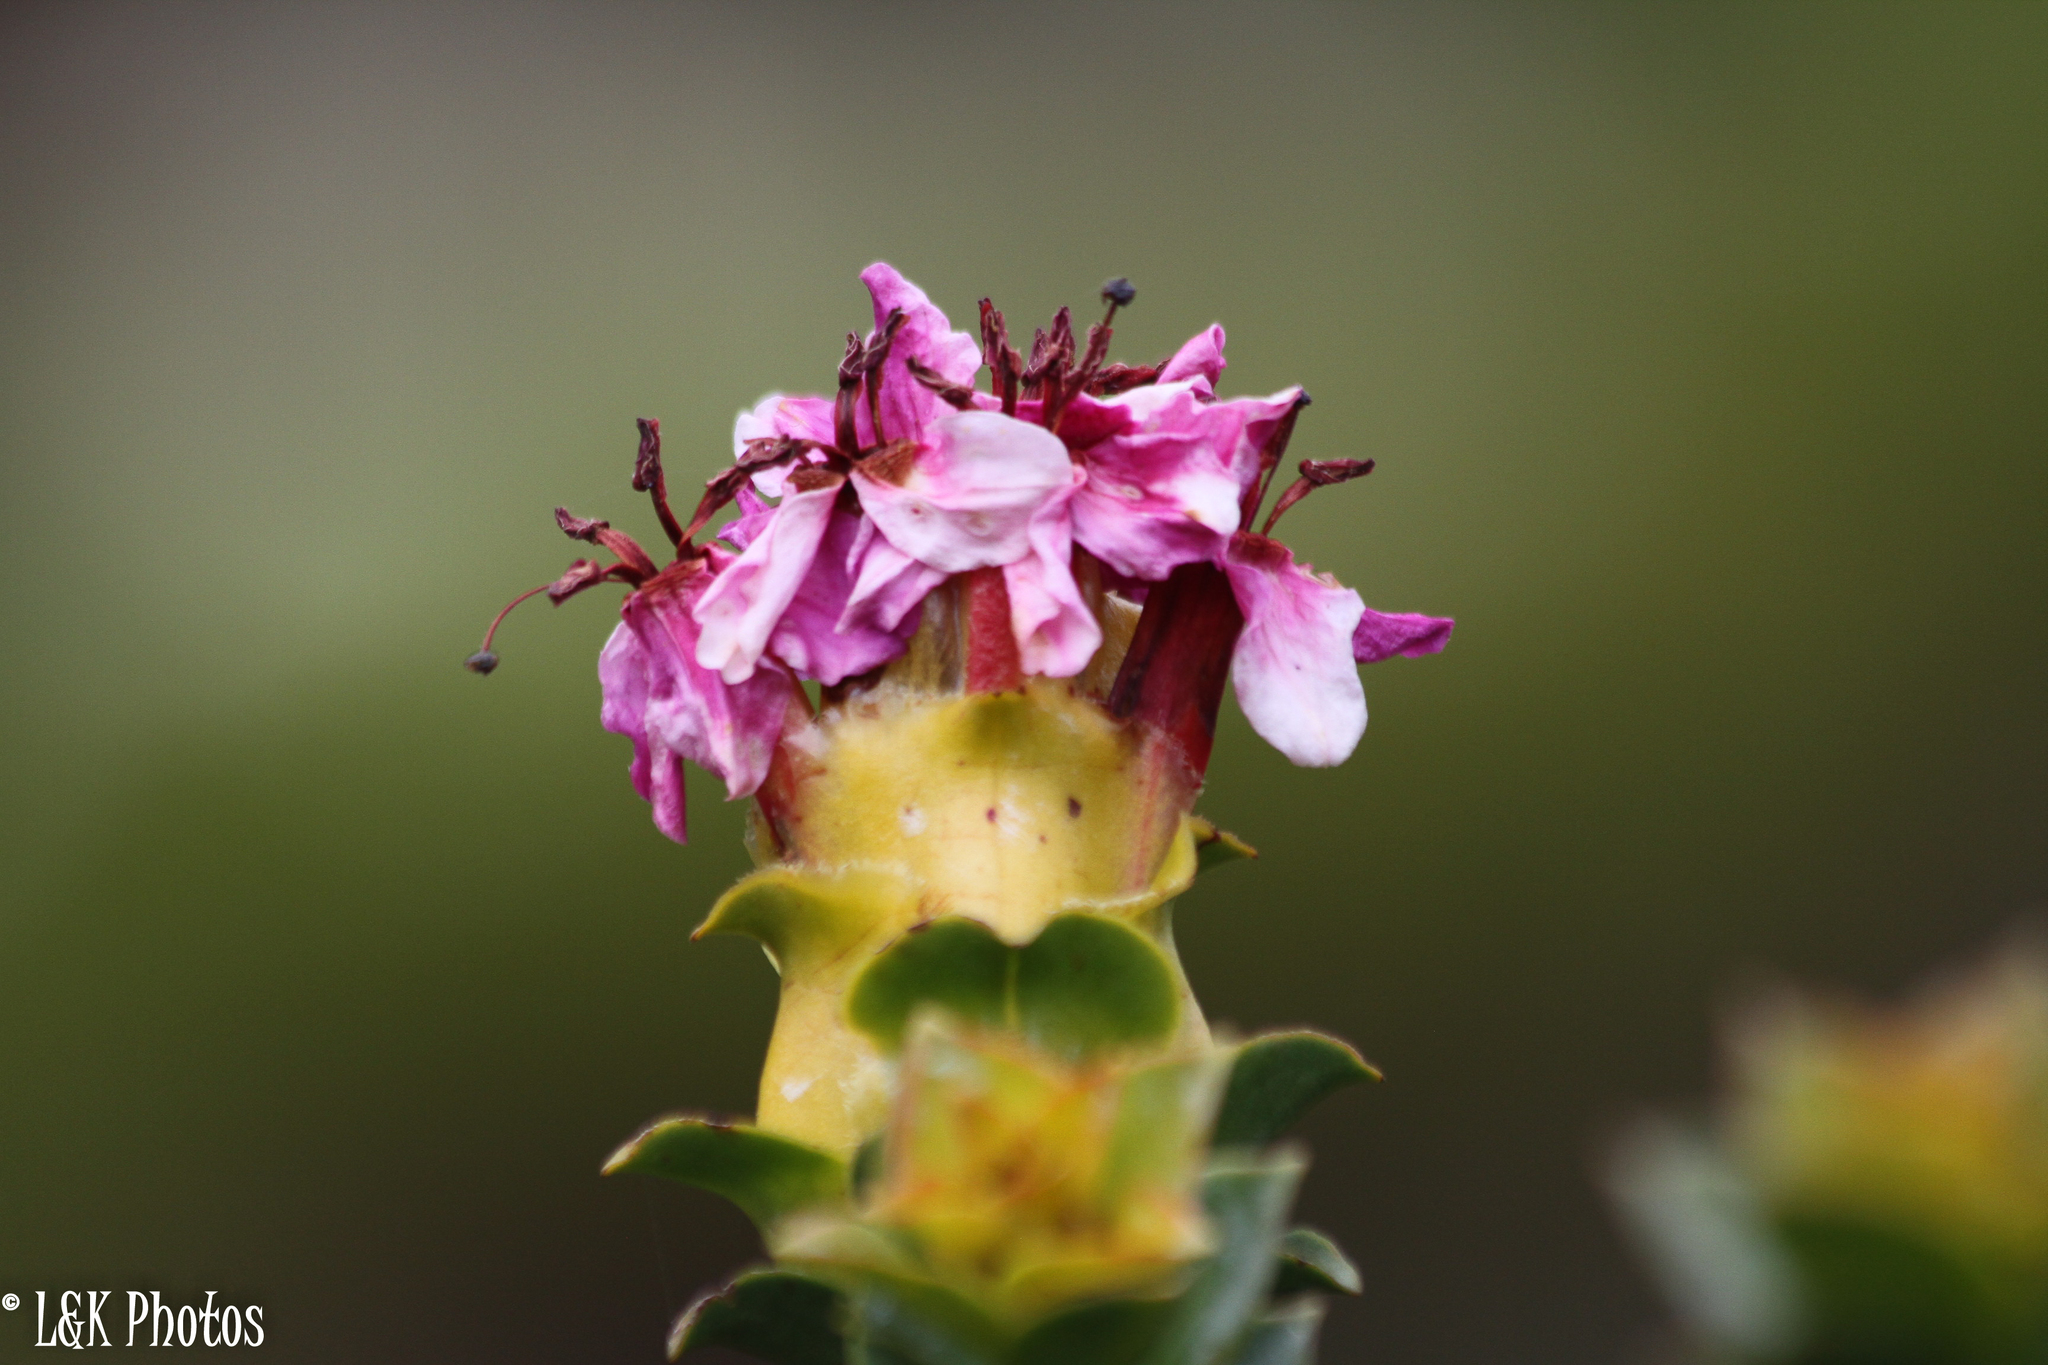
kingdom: Plantae
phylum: Tracheophyta
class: Magnoliopsida
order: Myrtales
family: Penaeaceae
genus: Saltera
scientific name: Saltera sarcocolla
